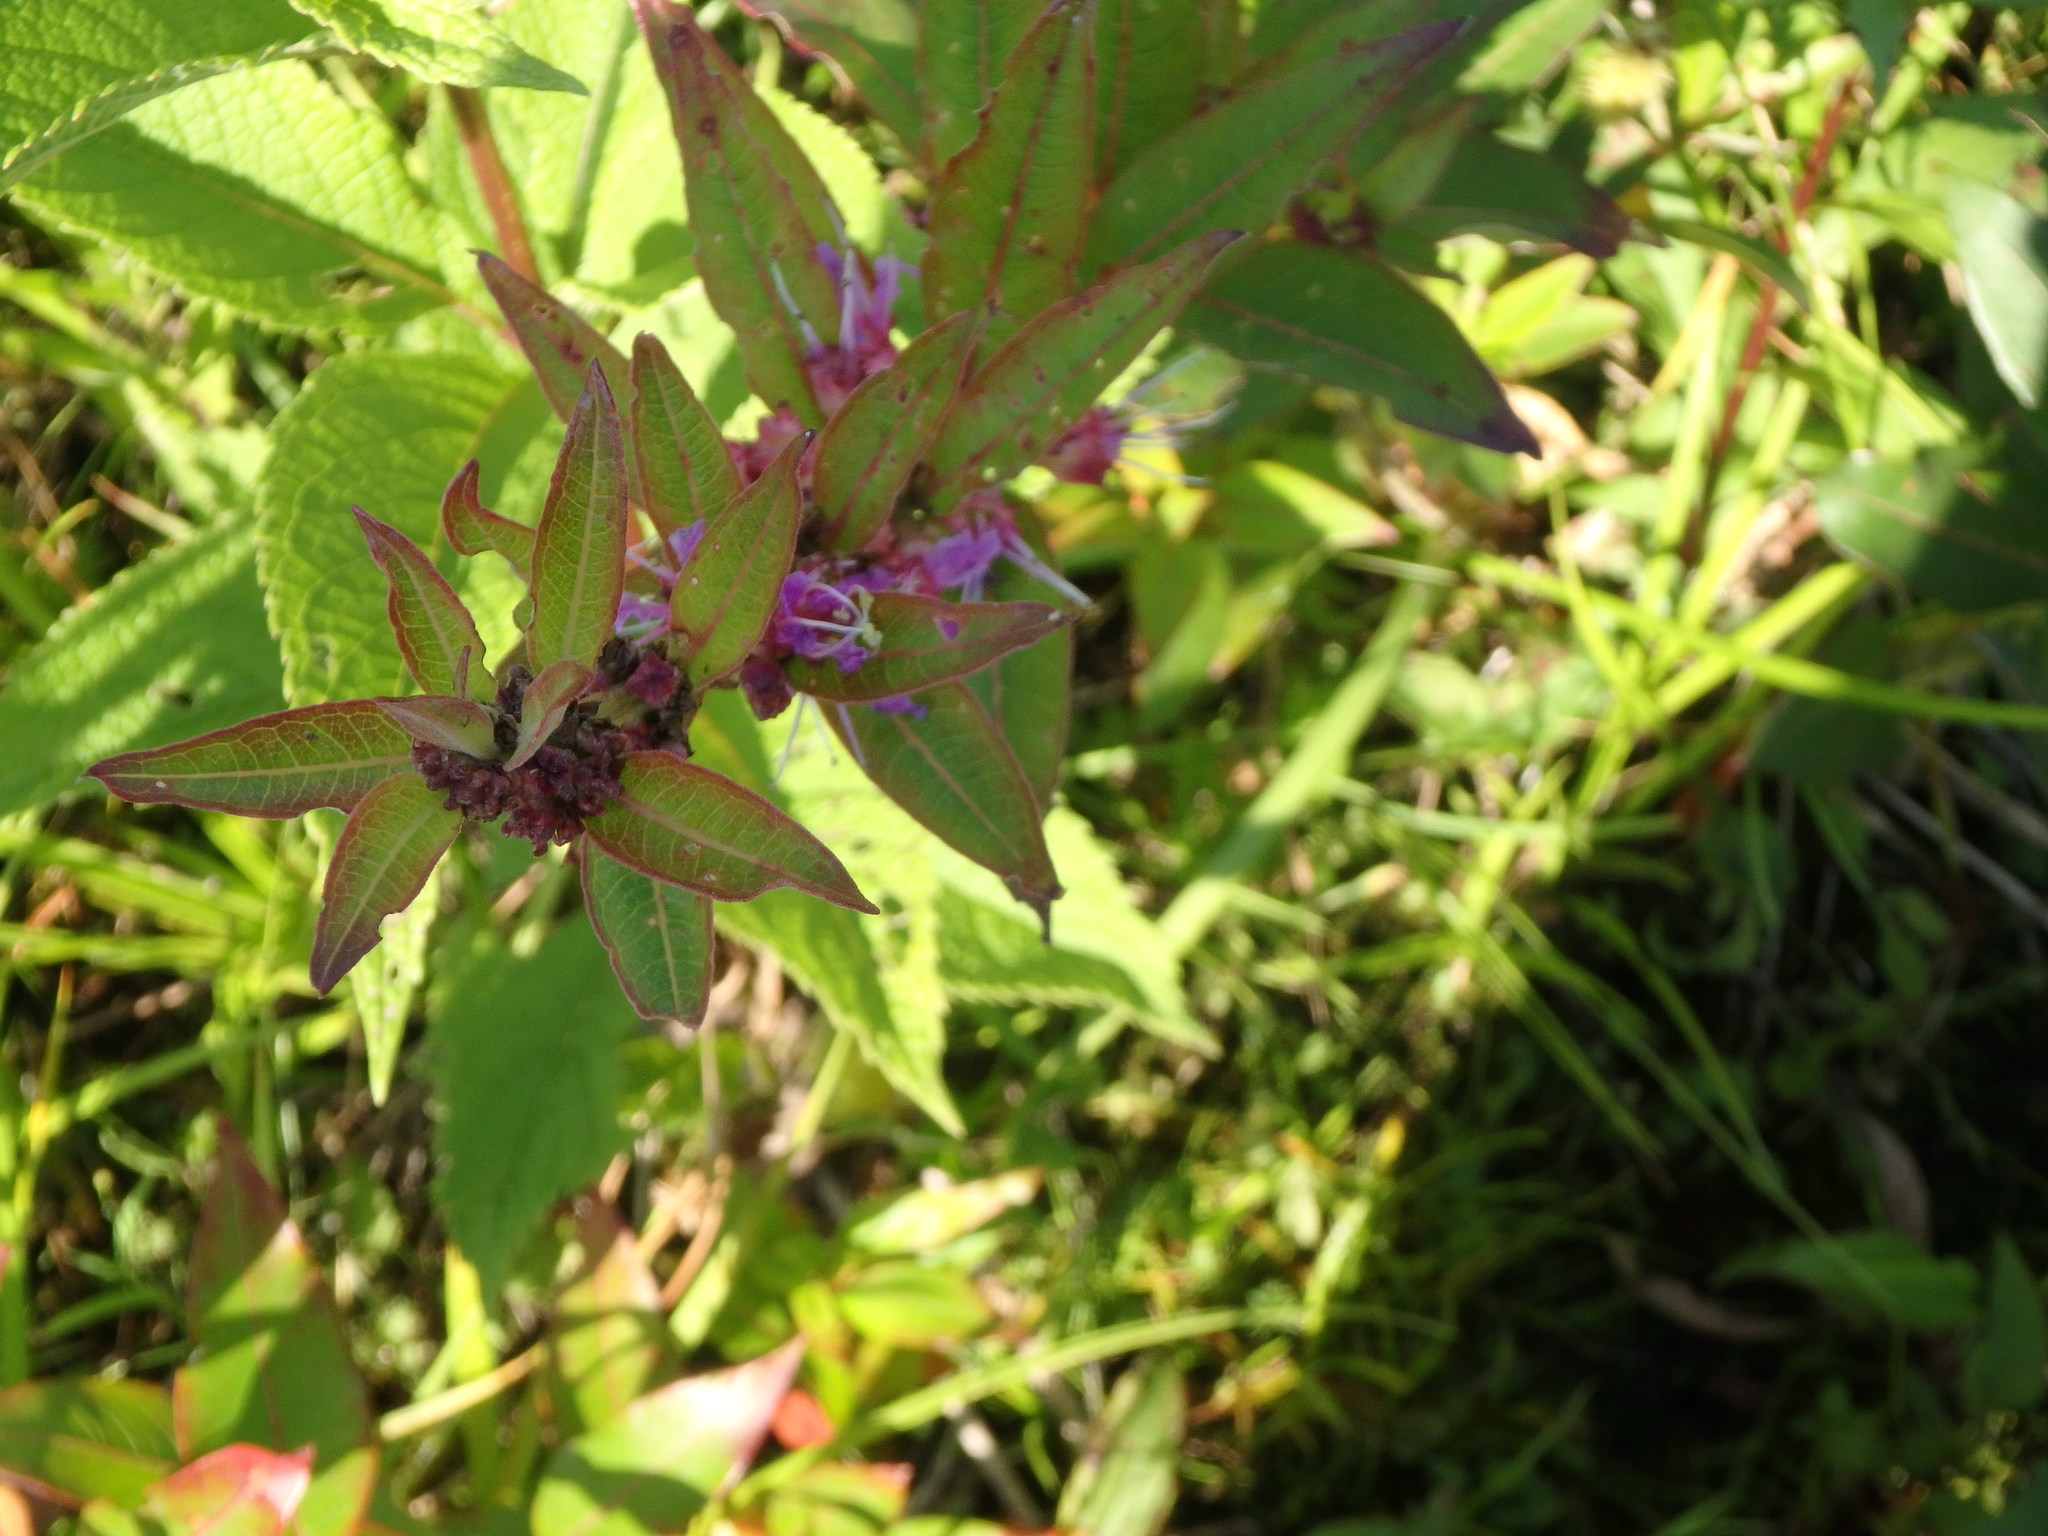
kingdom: Plantae
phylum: Tracheophyta
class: Magnoliopsida
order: Myrtales
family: Lythraceae
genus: Decodon
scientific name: Decodon verticillatus
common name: Hairy swamp loosestrife
